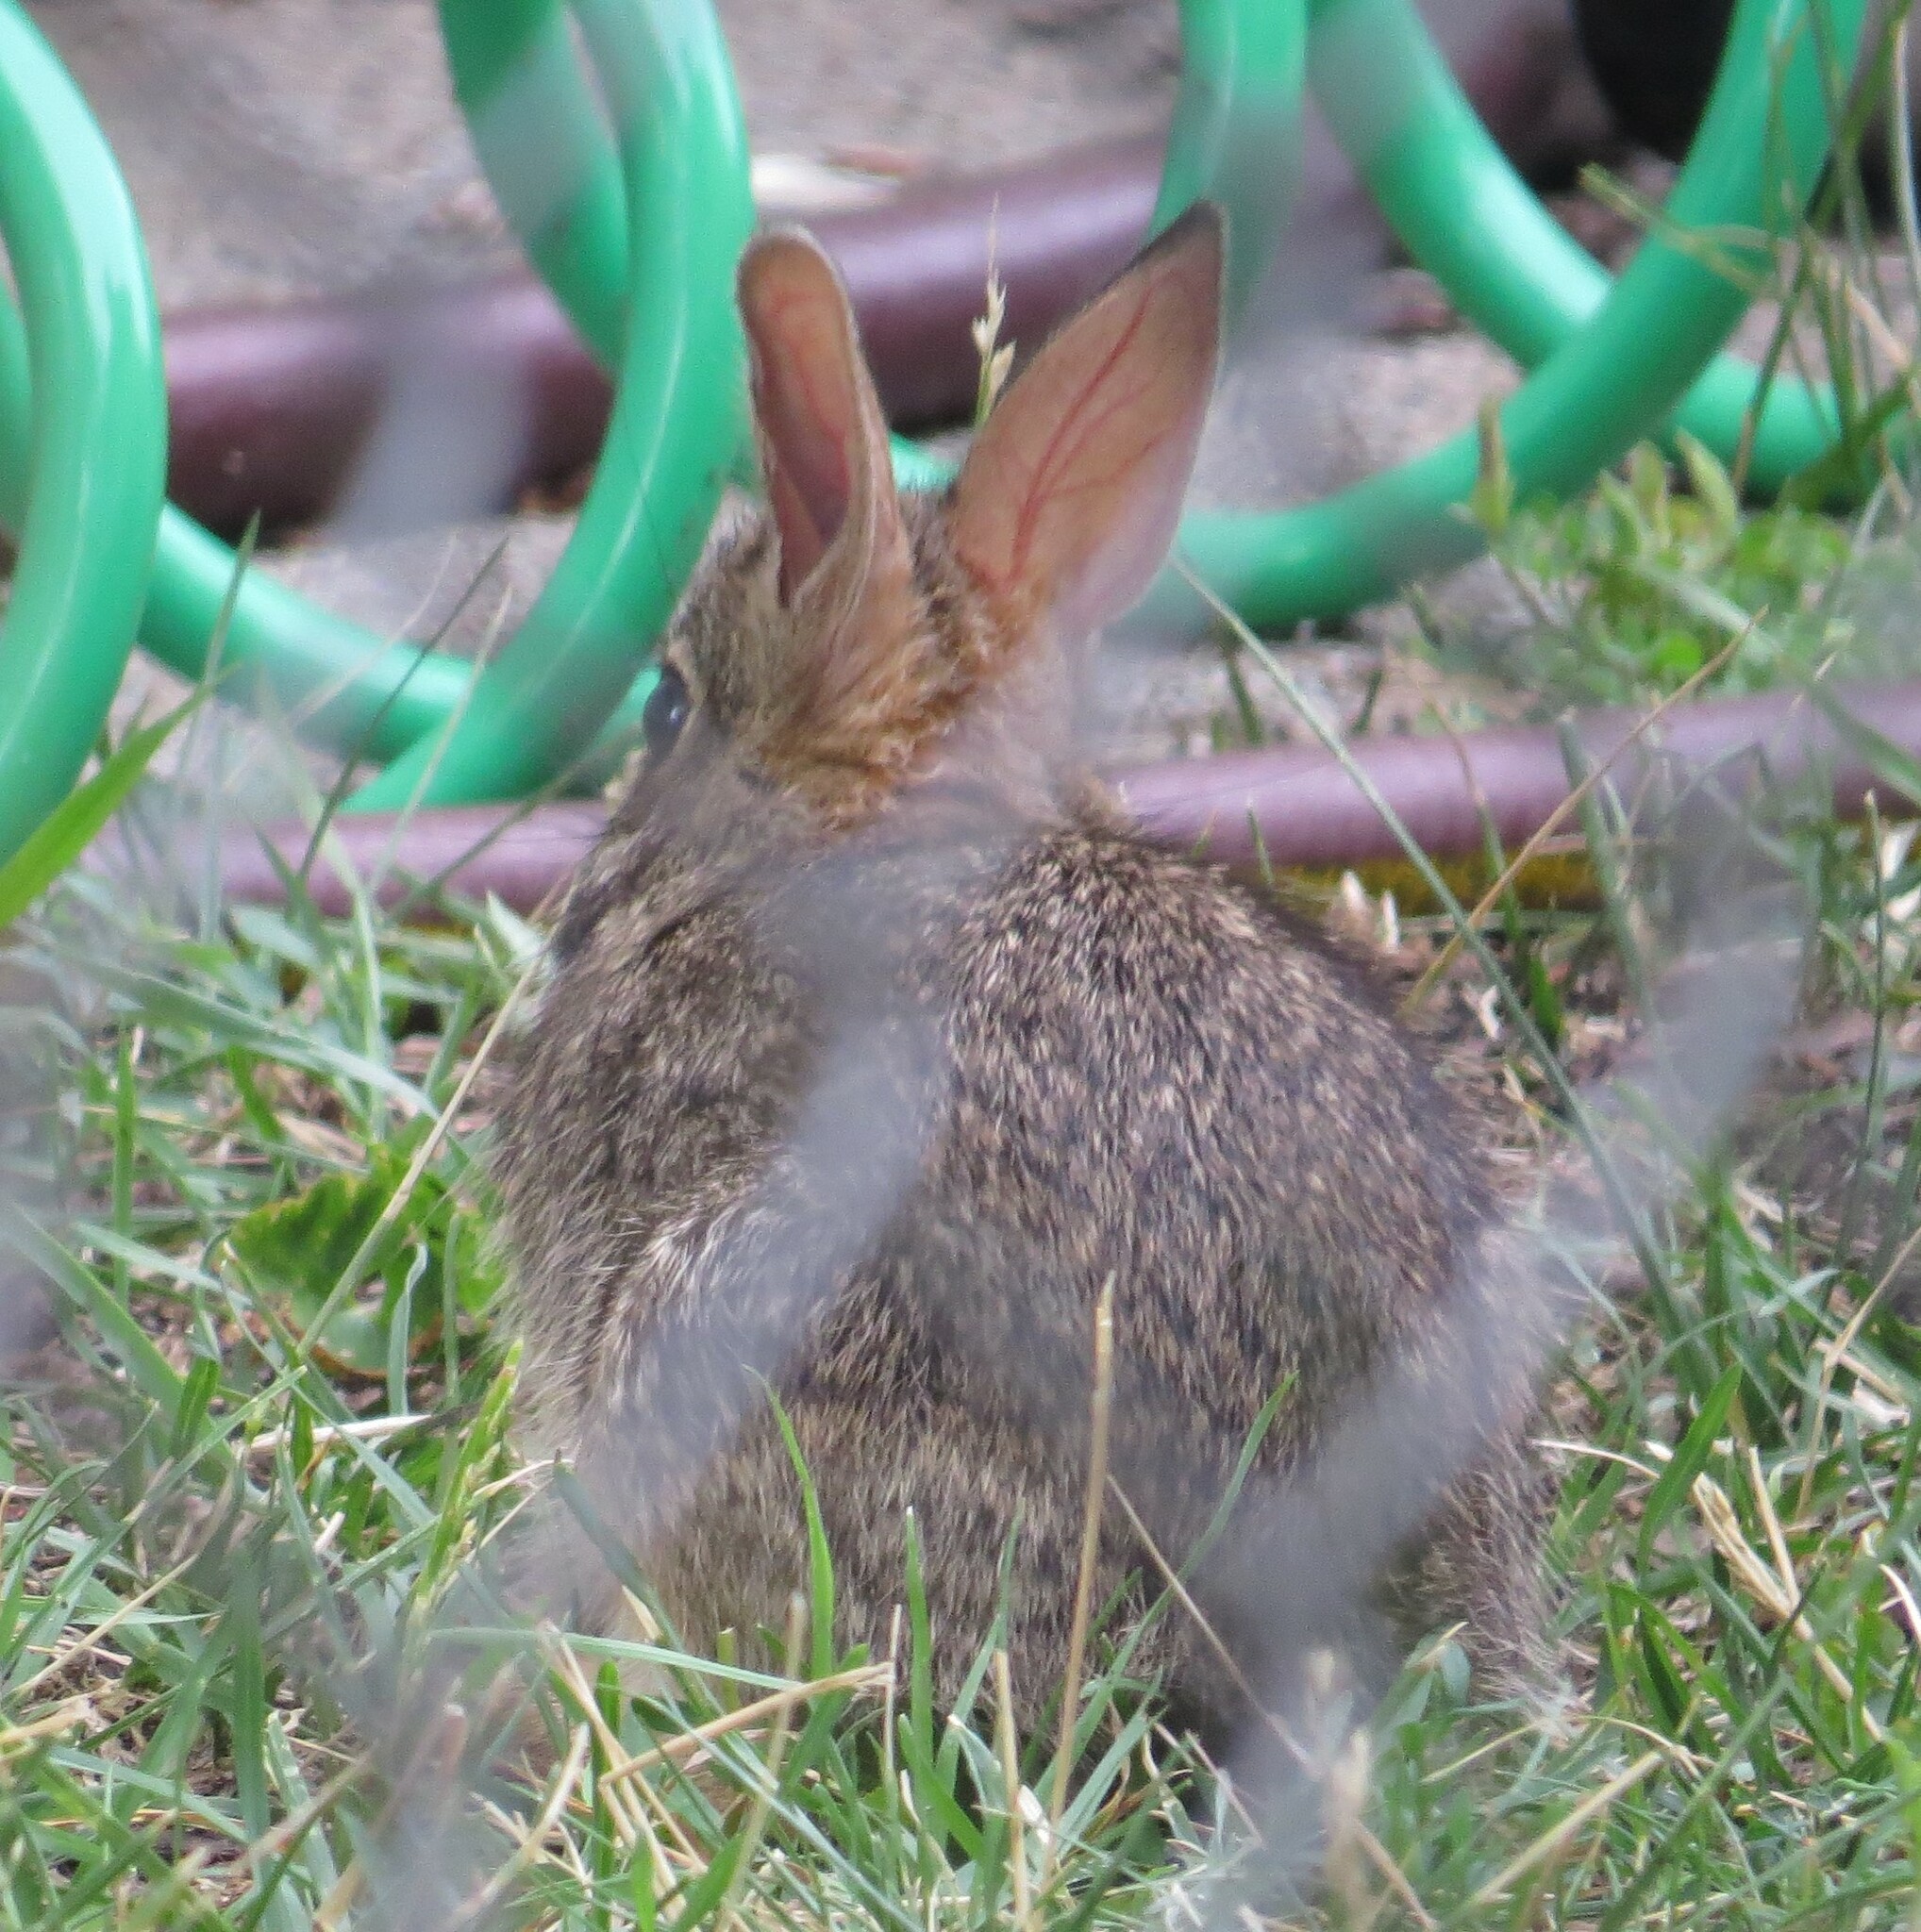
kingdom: Animalia
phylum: Chordata
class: Mammalia
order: Lagomorpha
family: Leporidae
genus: Sylvilagus
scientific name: Sylvilagus floridanus
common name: Eastern cottontail
